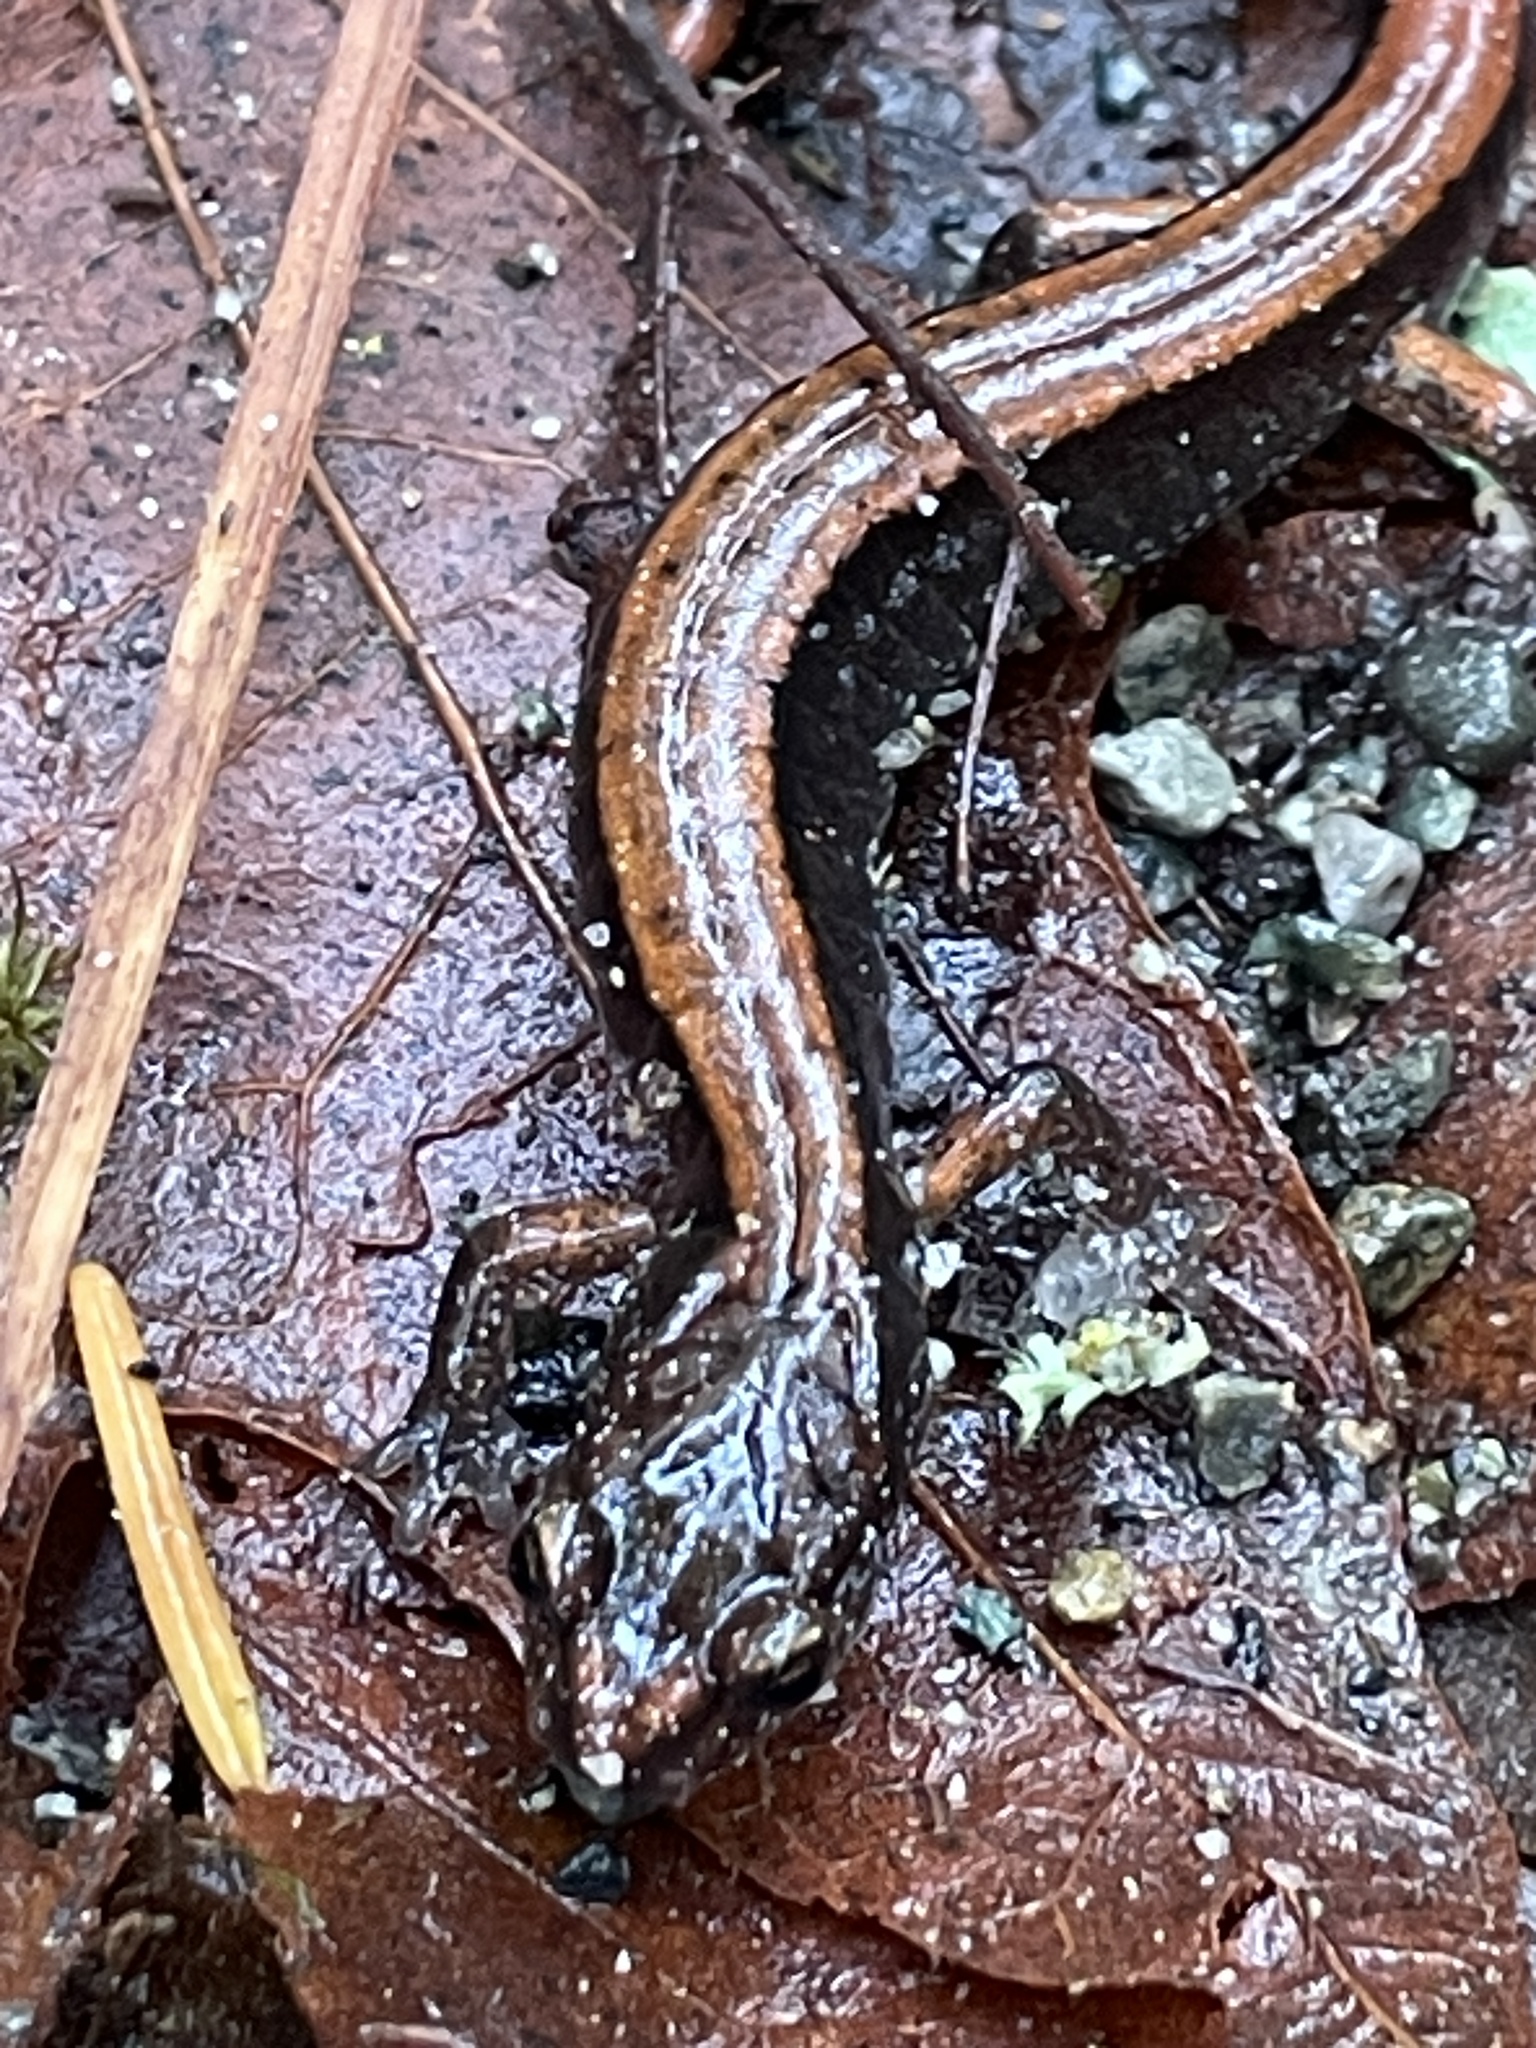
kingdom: Animalia
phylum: Chordata
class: Amphibia
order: Caudata
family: Plethodontidae
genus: Plethodon
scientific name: Plethodon vehiculum
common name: Western red-backed salamander
